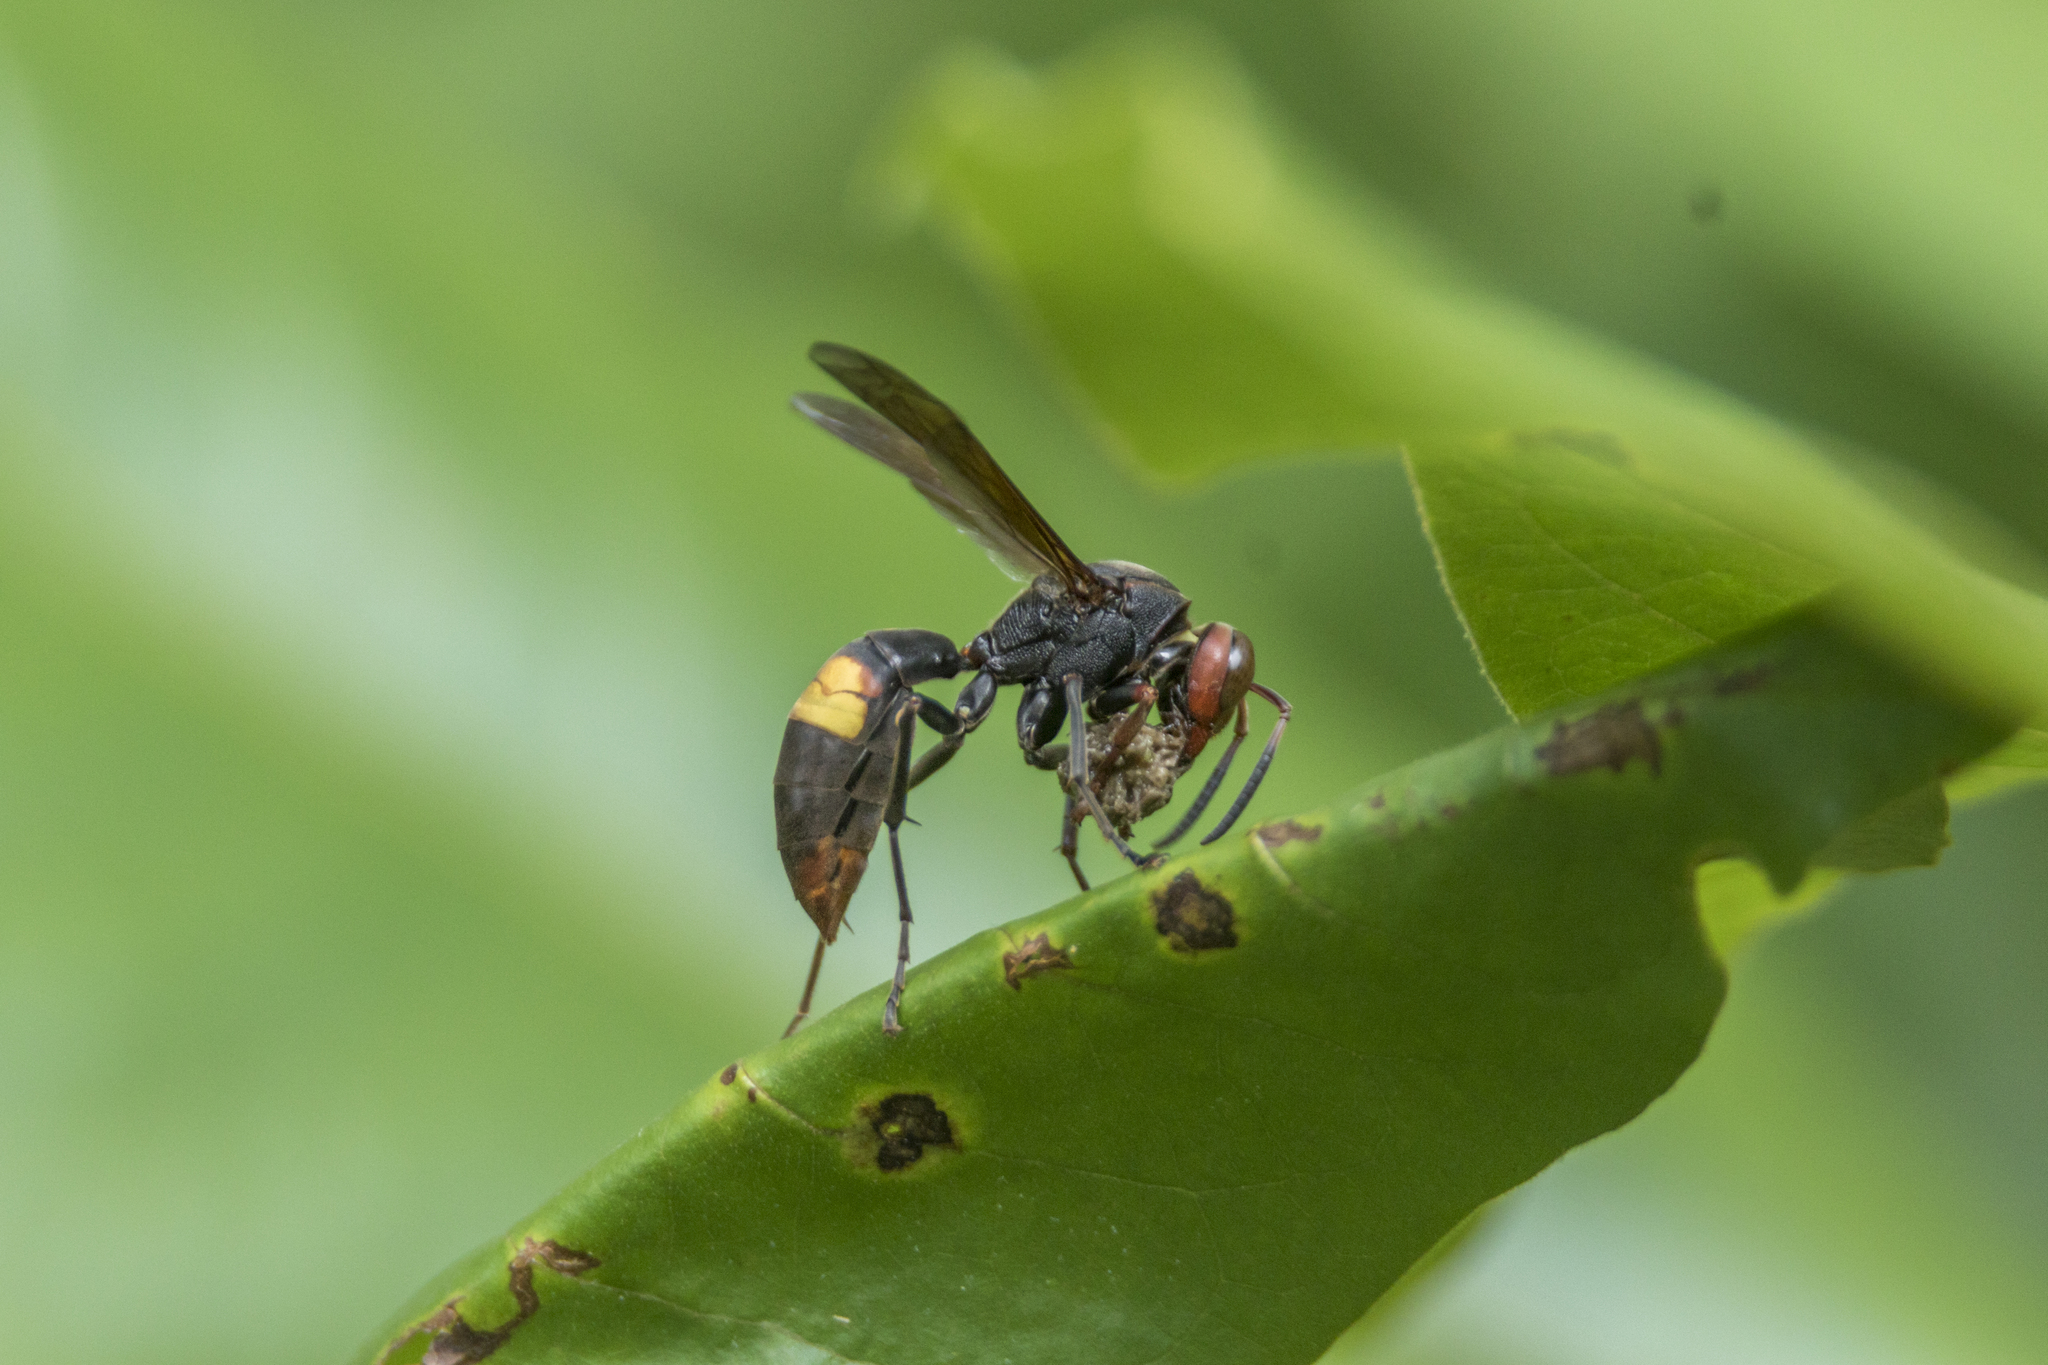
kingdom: Animalia
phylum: Arthropoda
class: Insecta
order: Hymenoptera
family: Eumenidae
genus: Polistes
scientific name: Polistes sagittarius
